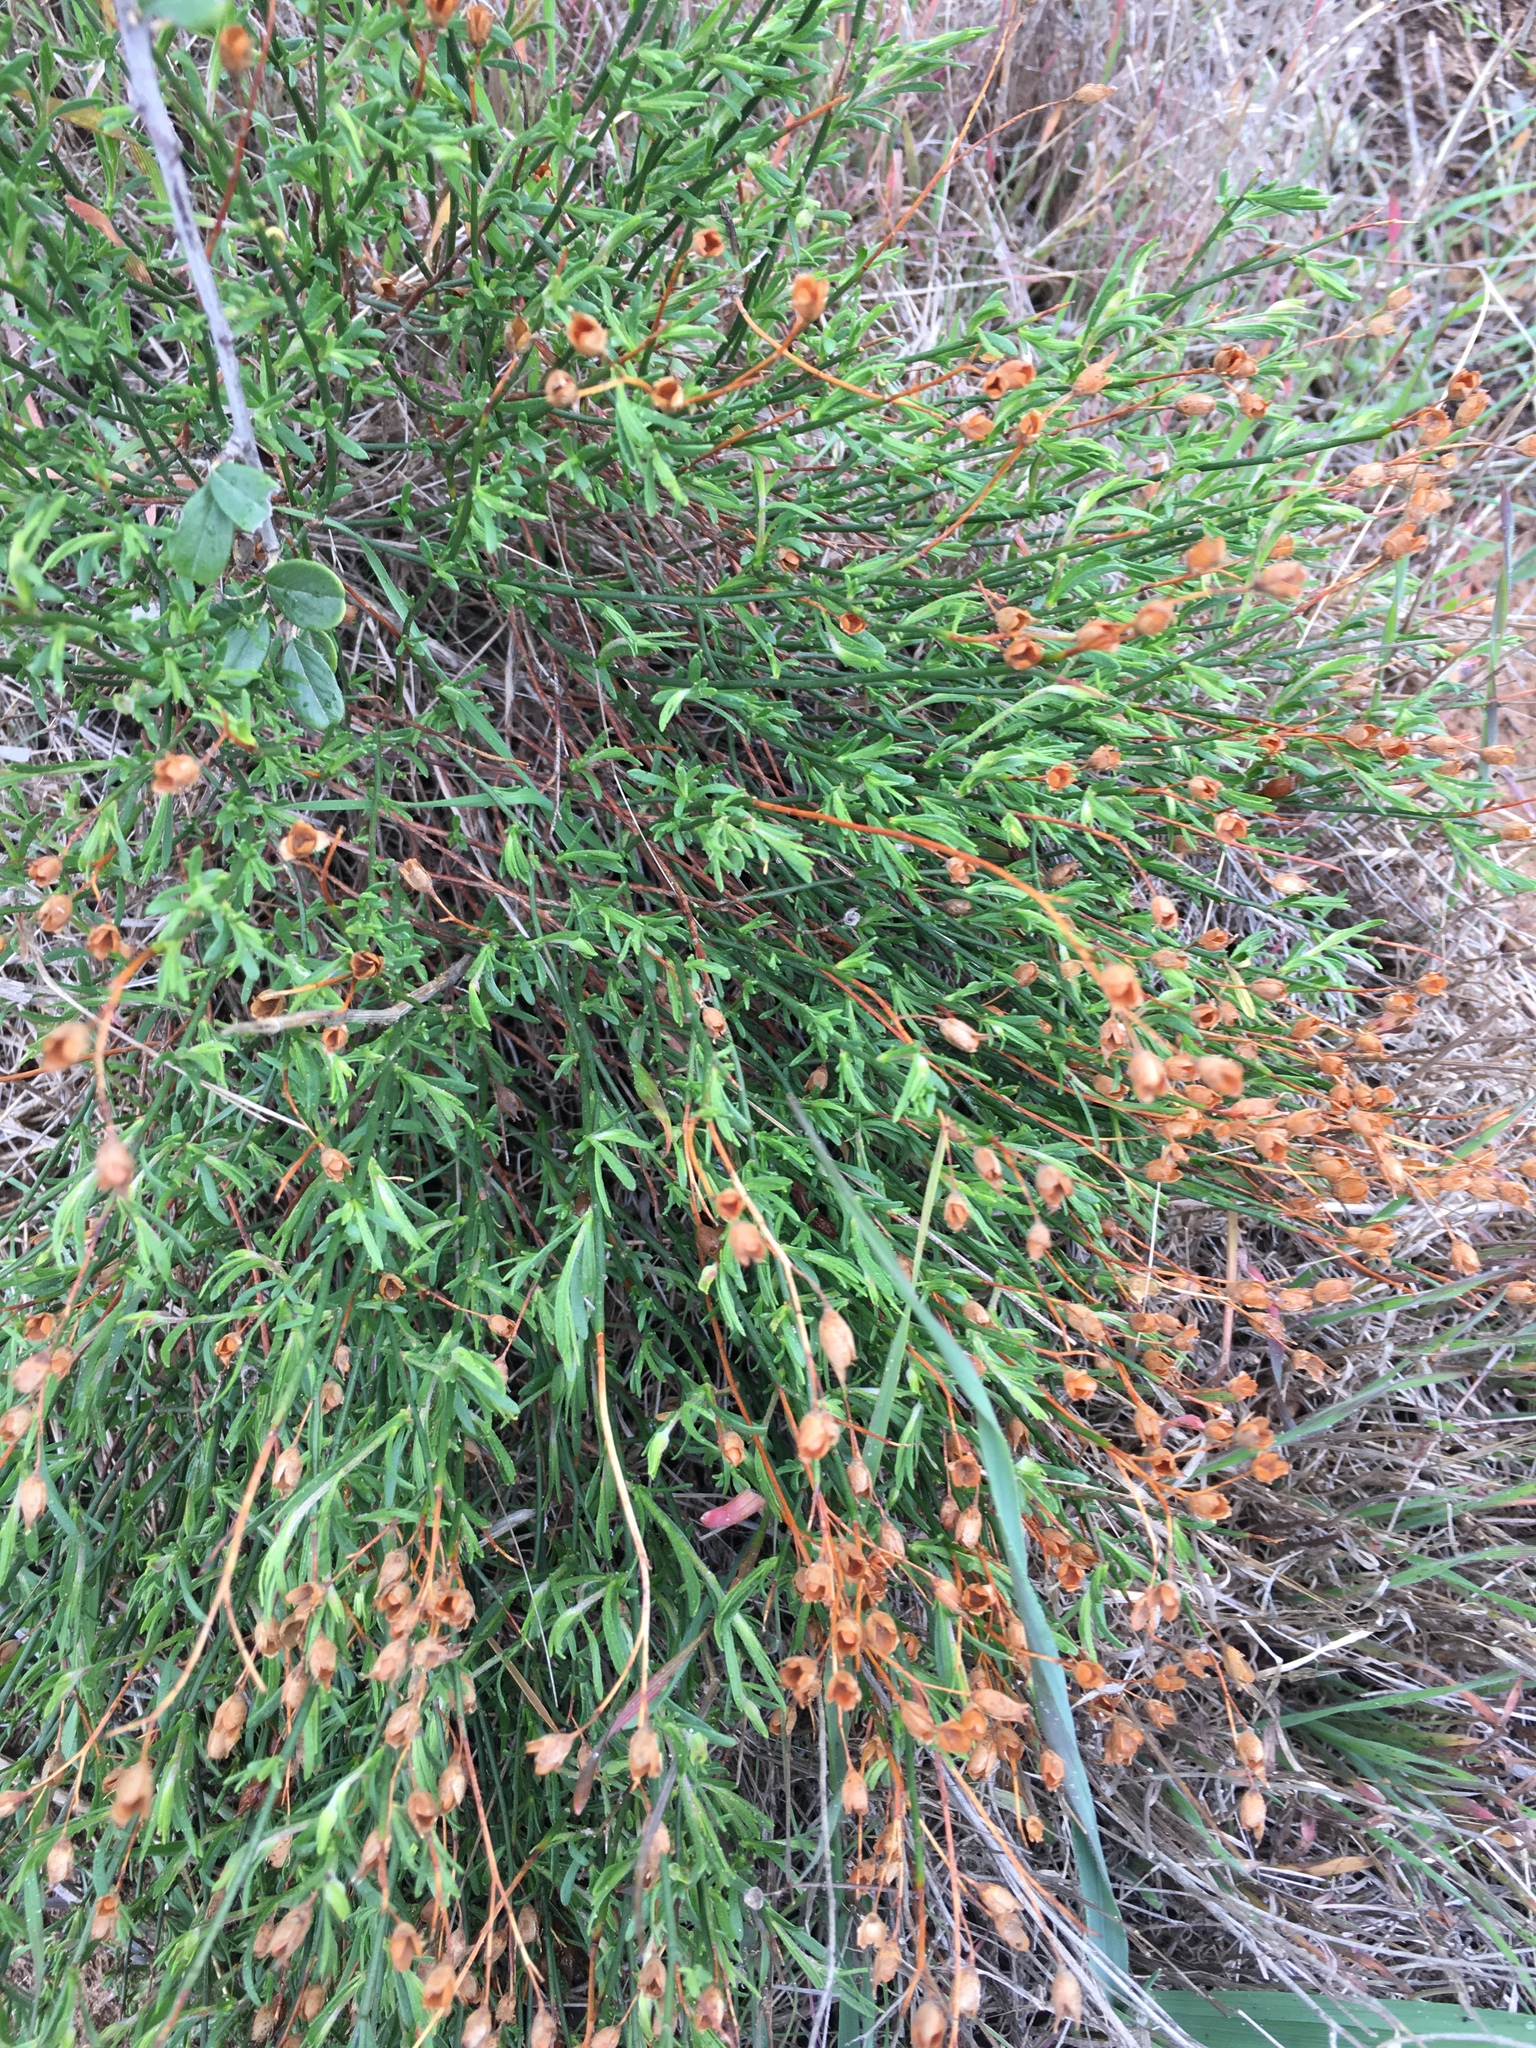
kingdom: Plantae
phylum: Tracheophyta
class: Magnoliopsida
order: Malvales
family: Cistaceae
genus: Crocanthemum
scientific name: Crocanthemum scoparium
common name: Broom-rose
